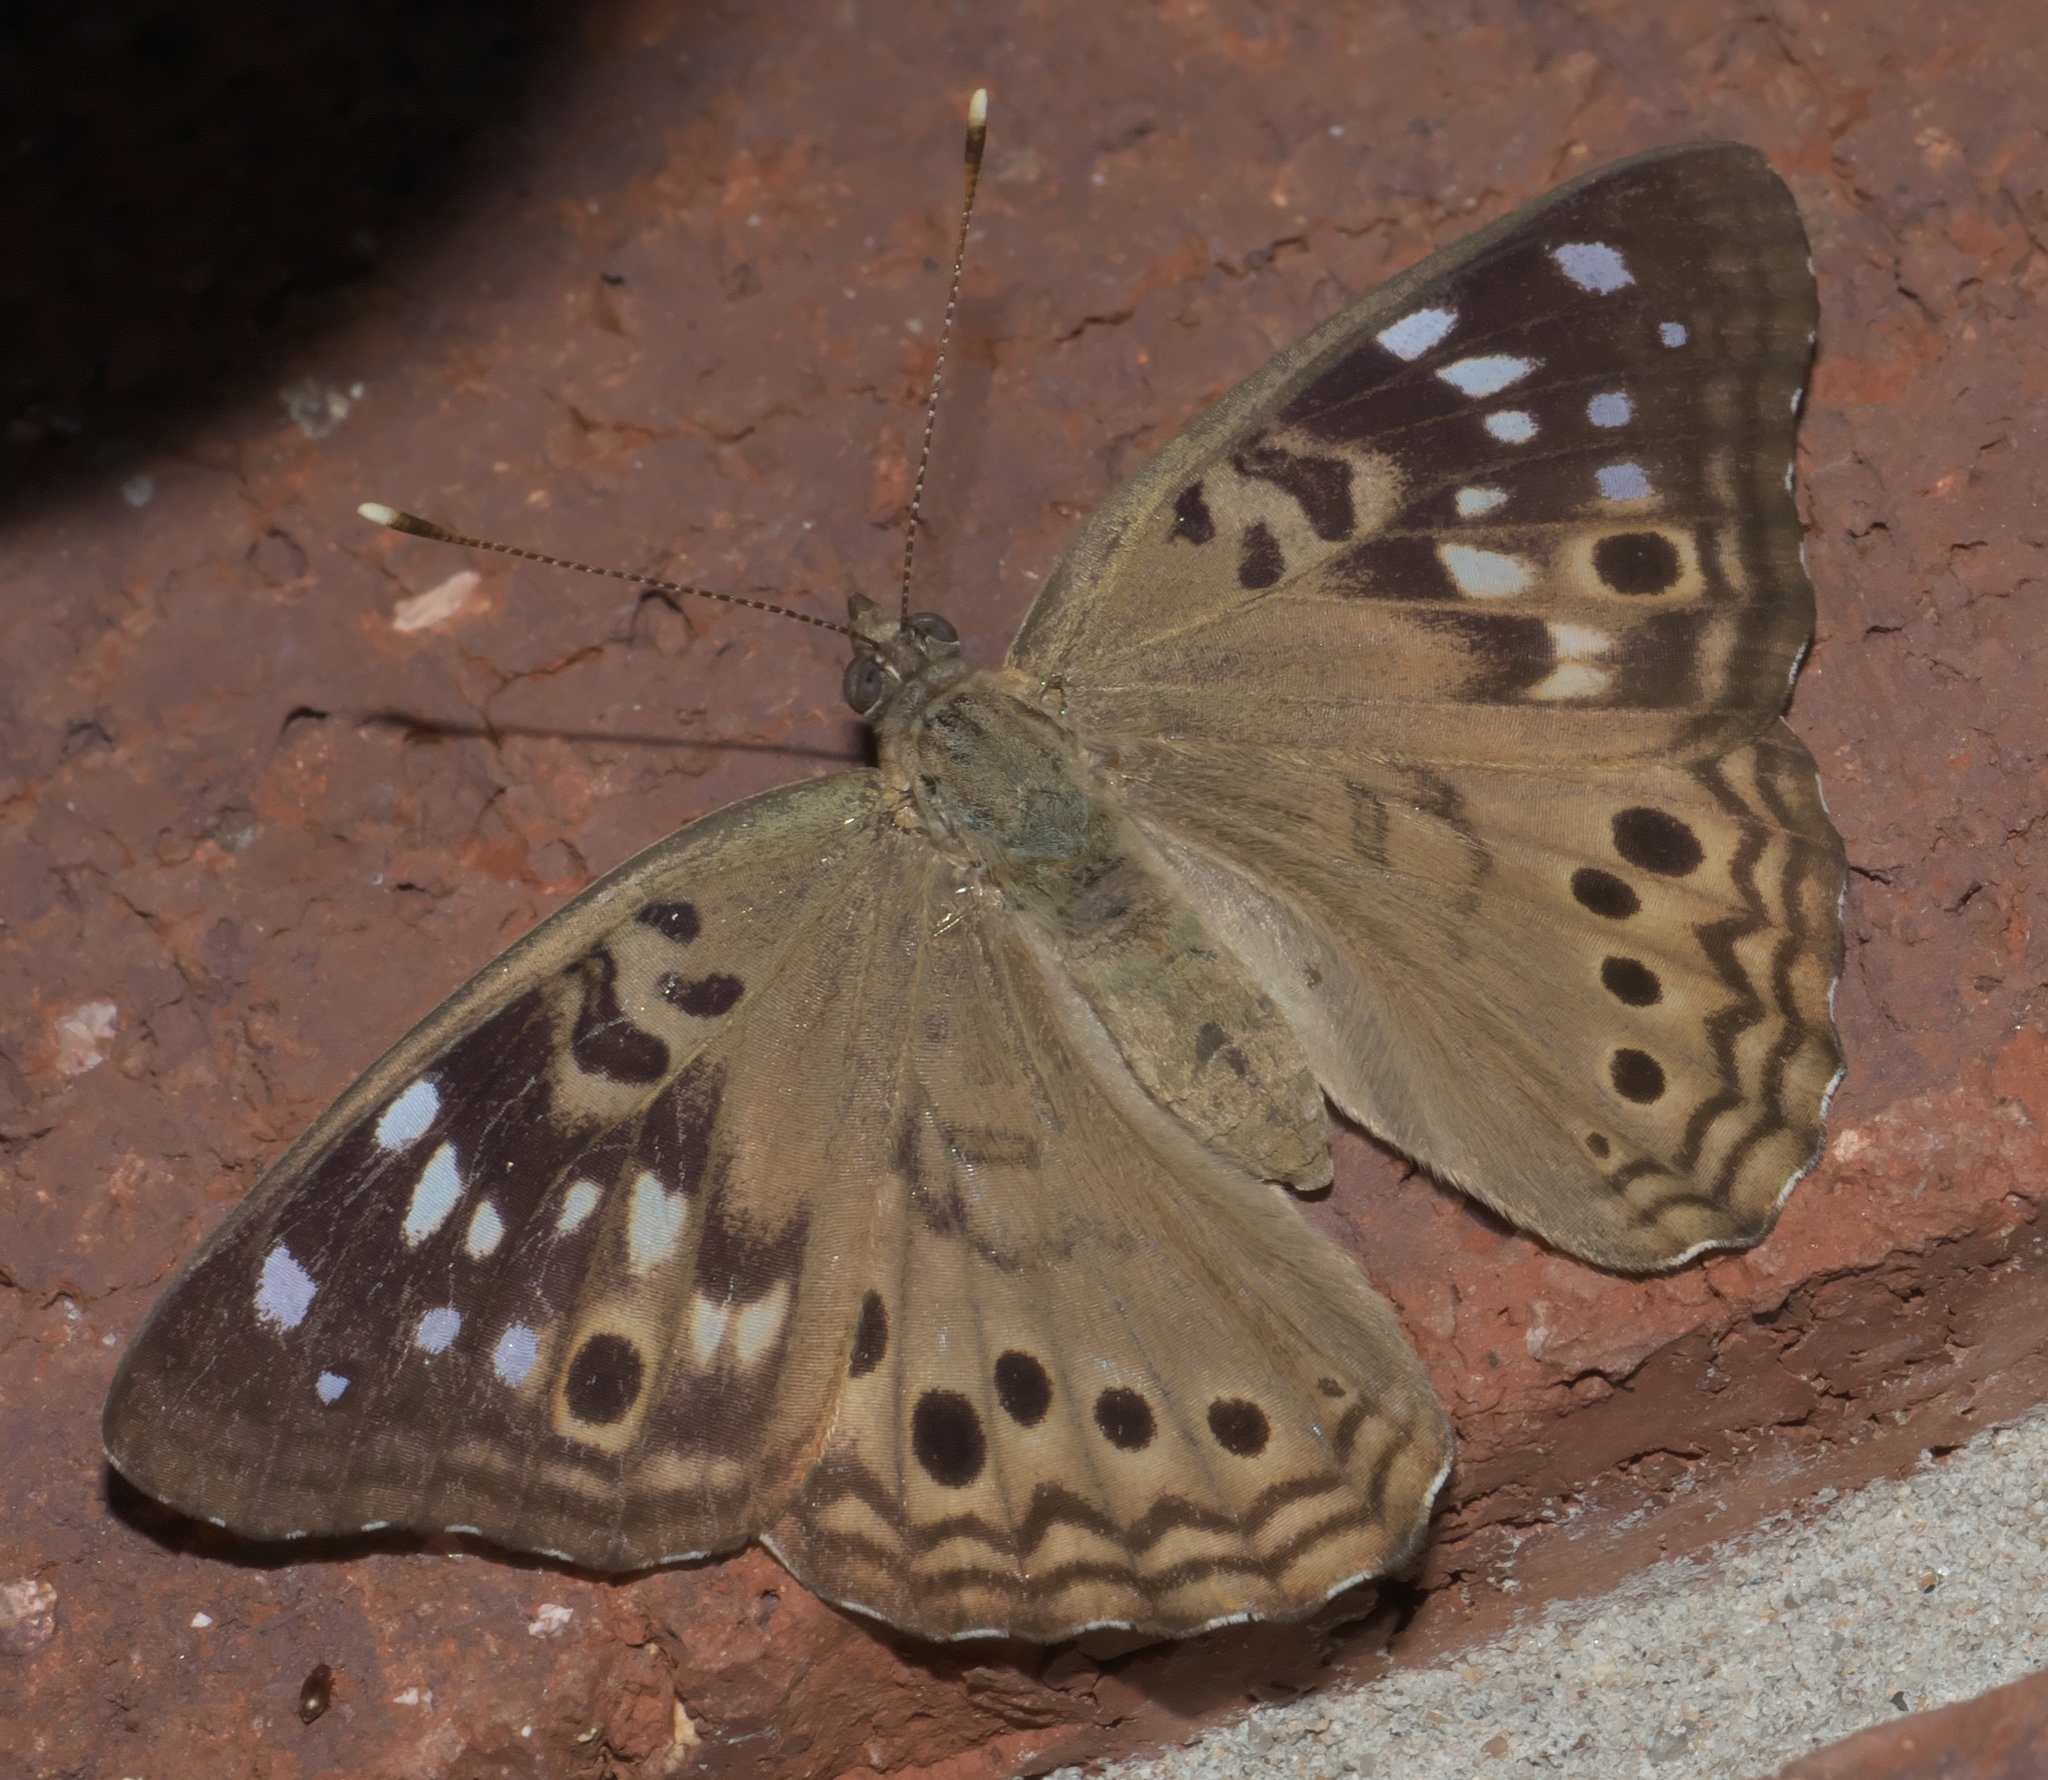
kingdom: Animalia
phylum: Arthropoda
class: Insecta
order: Lepidoptera
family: Nymphalidae
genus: Asterocampa
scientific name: Asterocampa celtis
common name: Hackberry emperor
